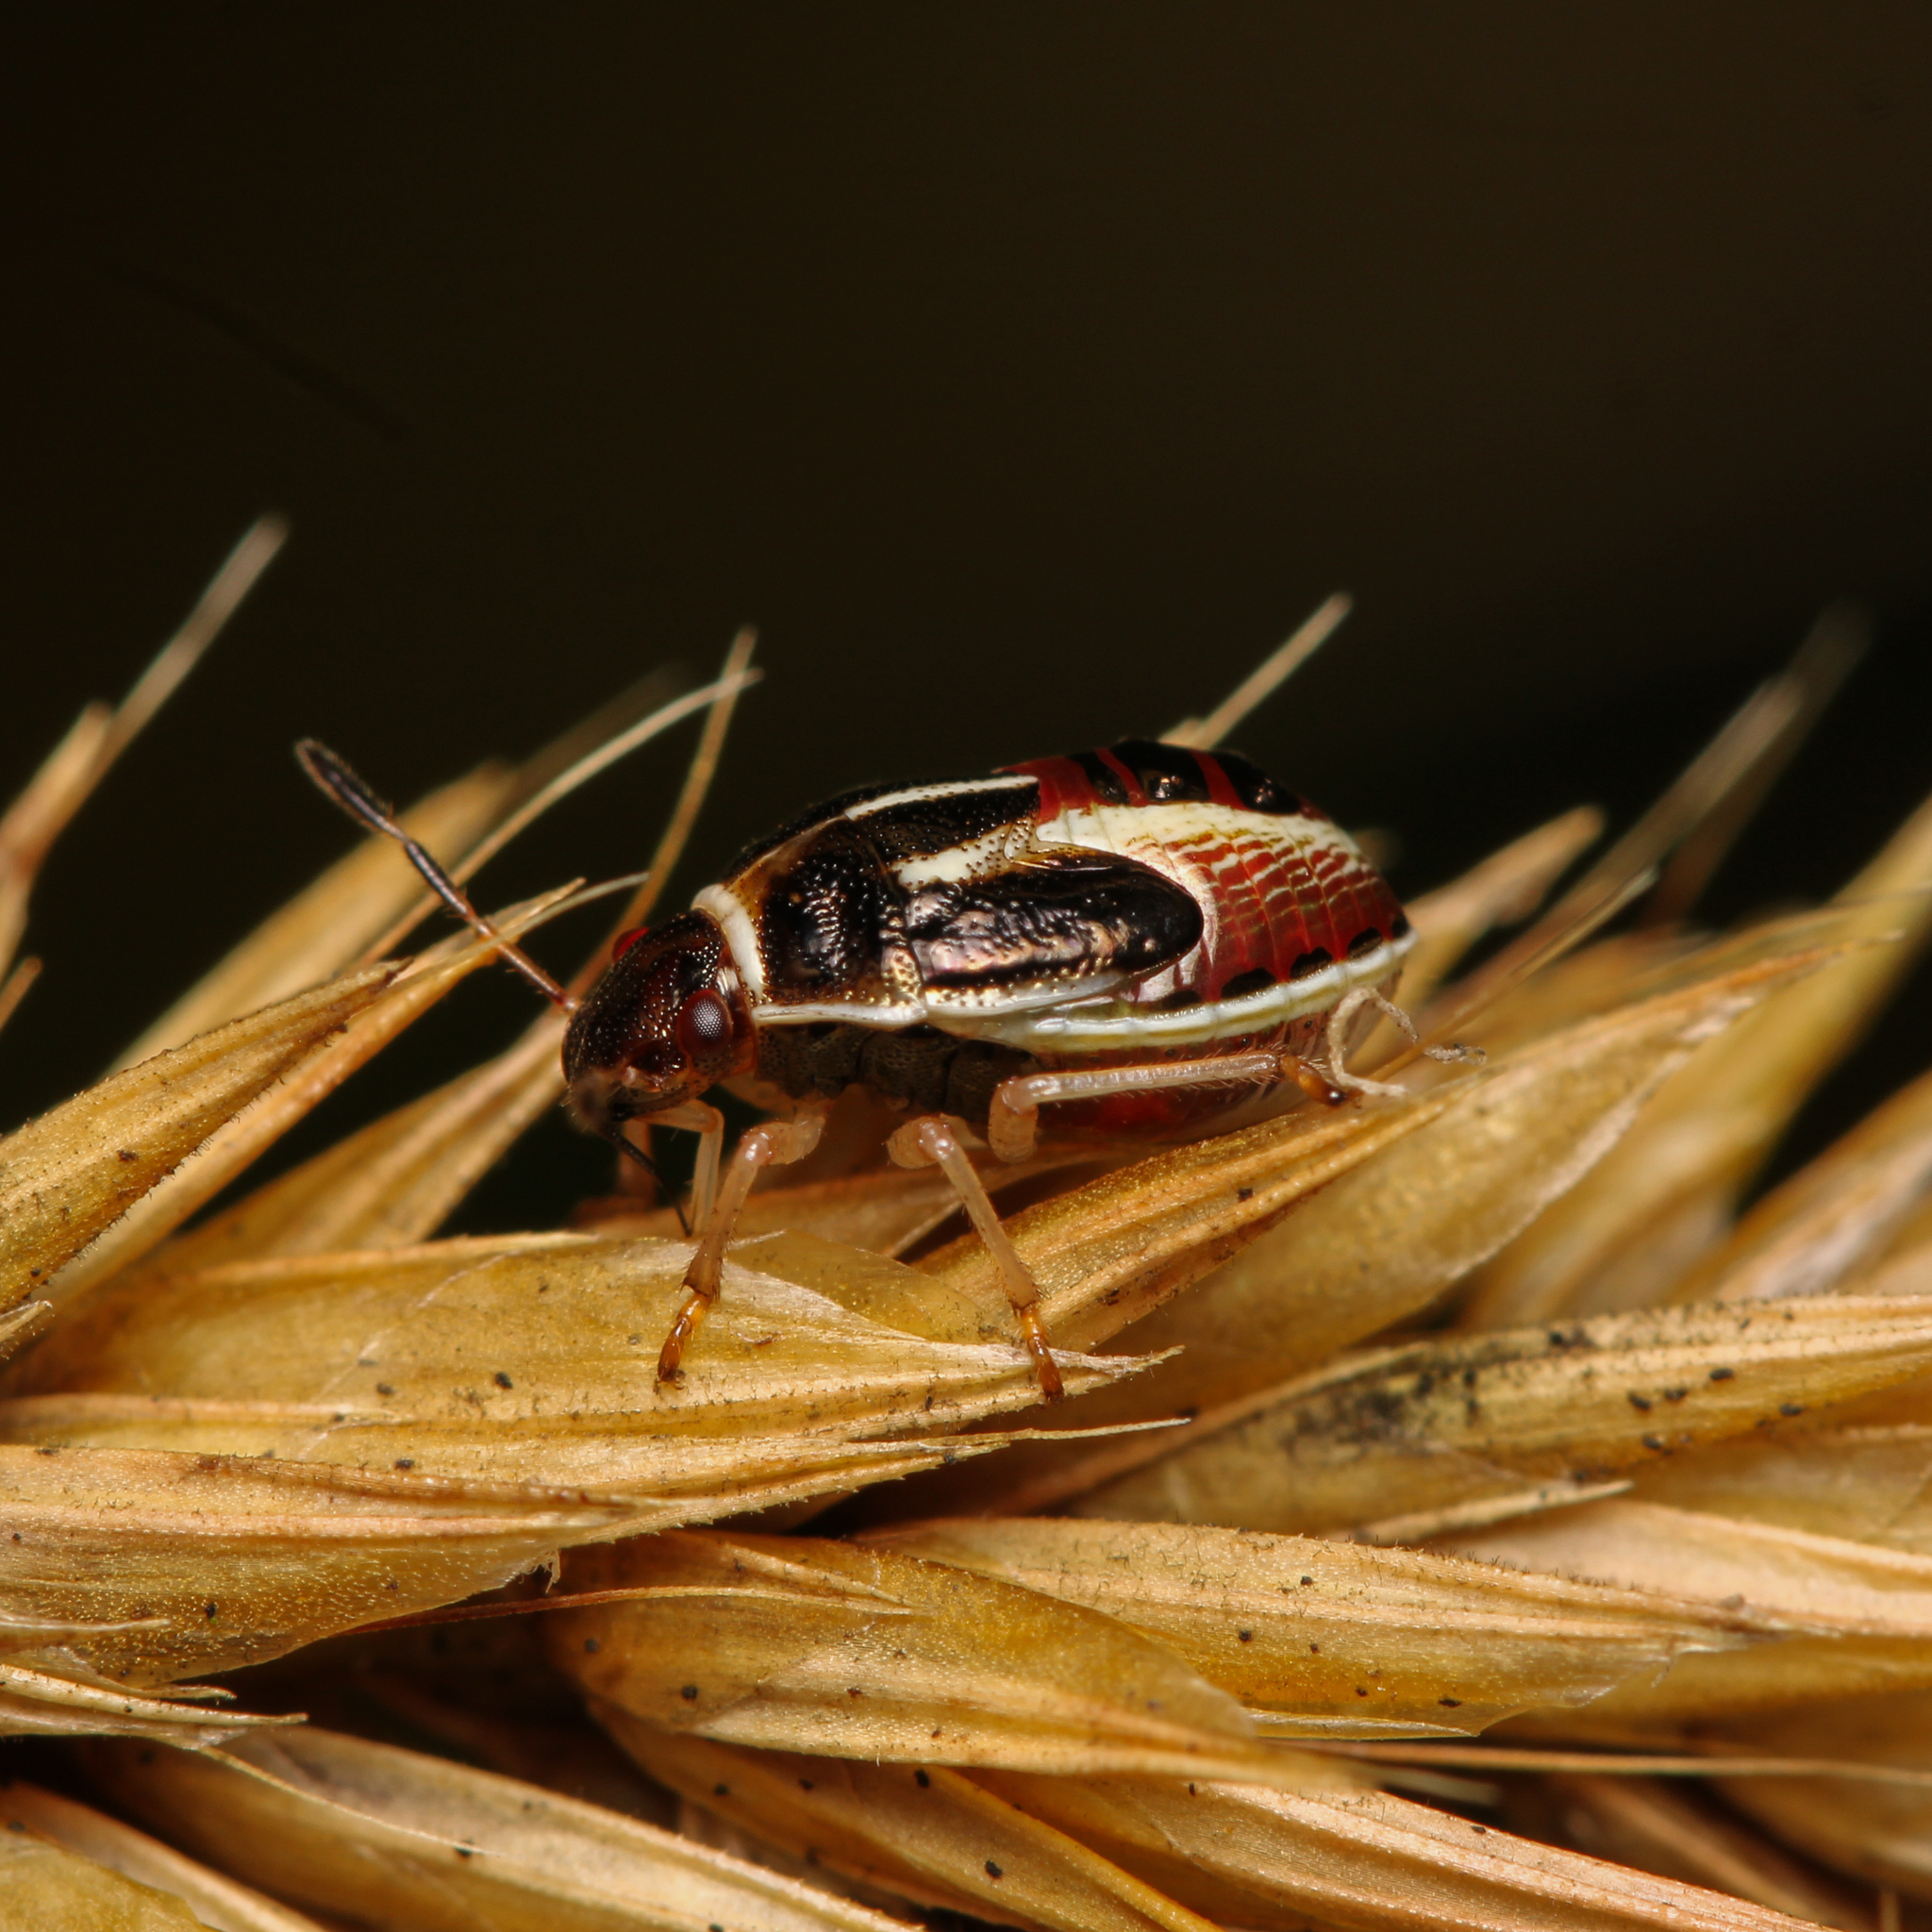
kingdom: Animalia
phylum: Arthropoda
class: Insecta
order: Hemiptera
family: Pentatomidae
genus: Mormidea
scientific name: Mormidea lugens
